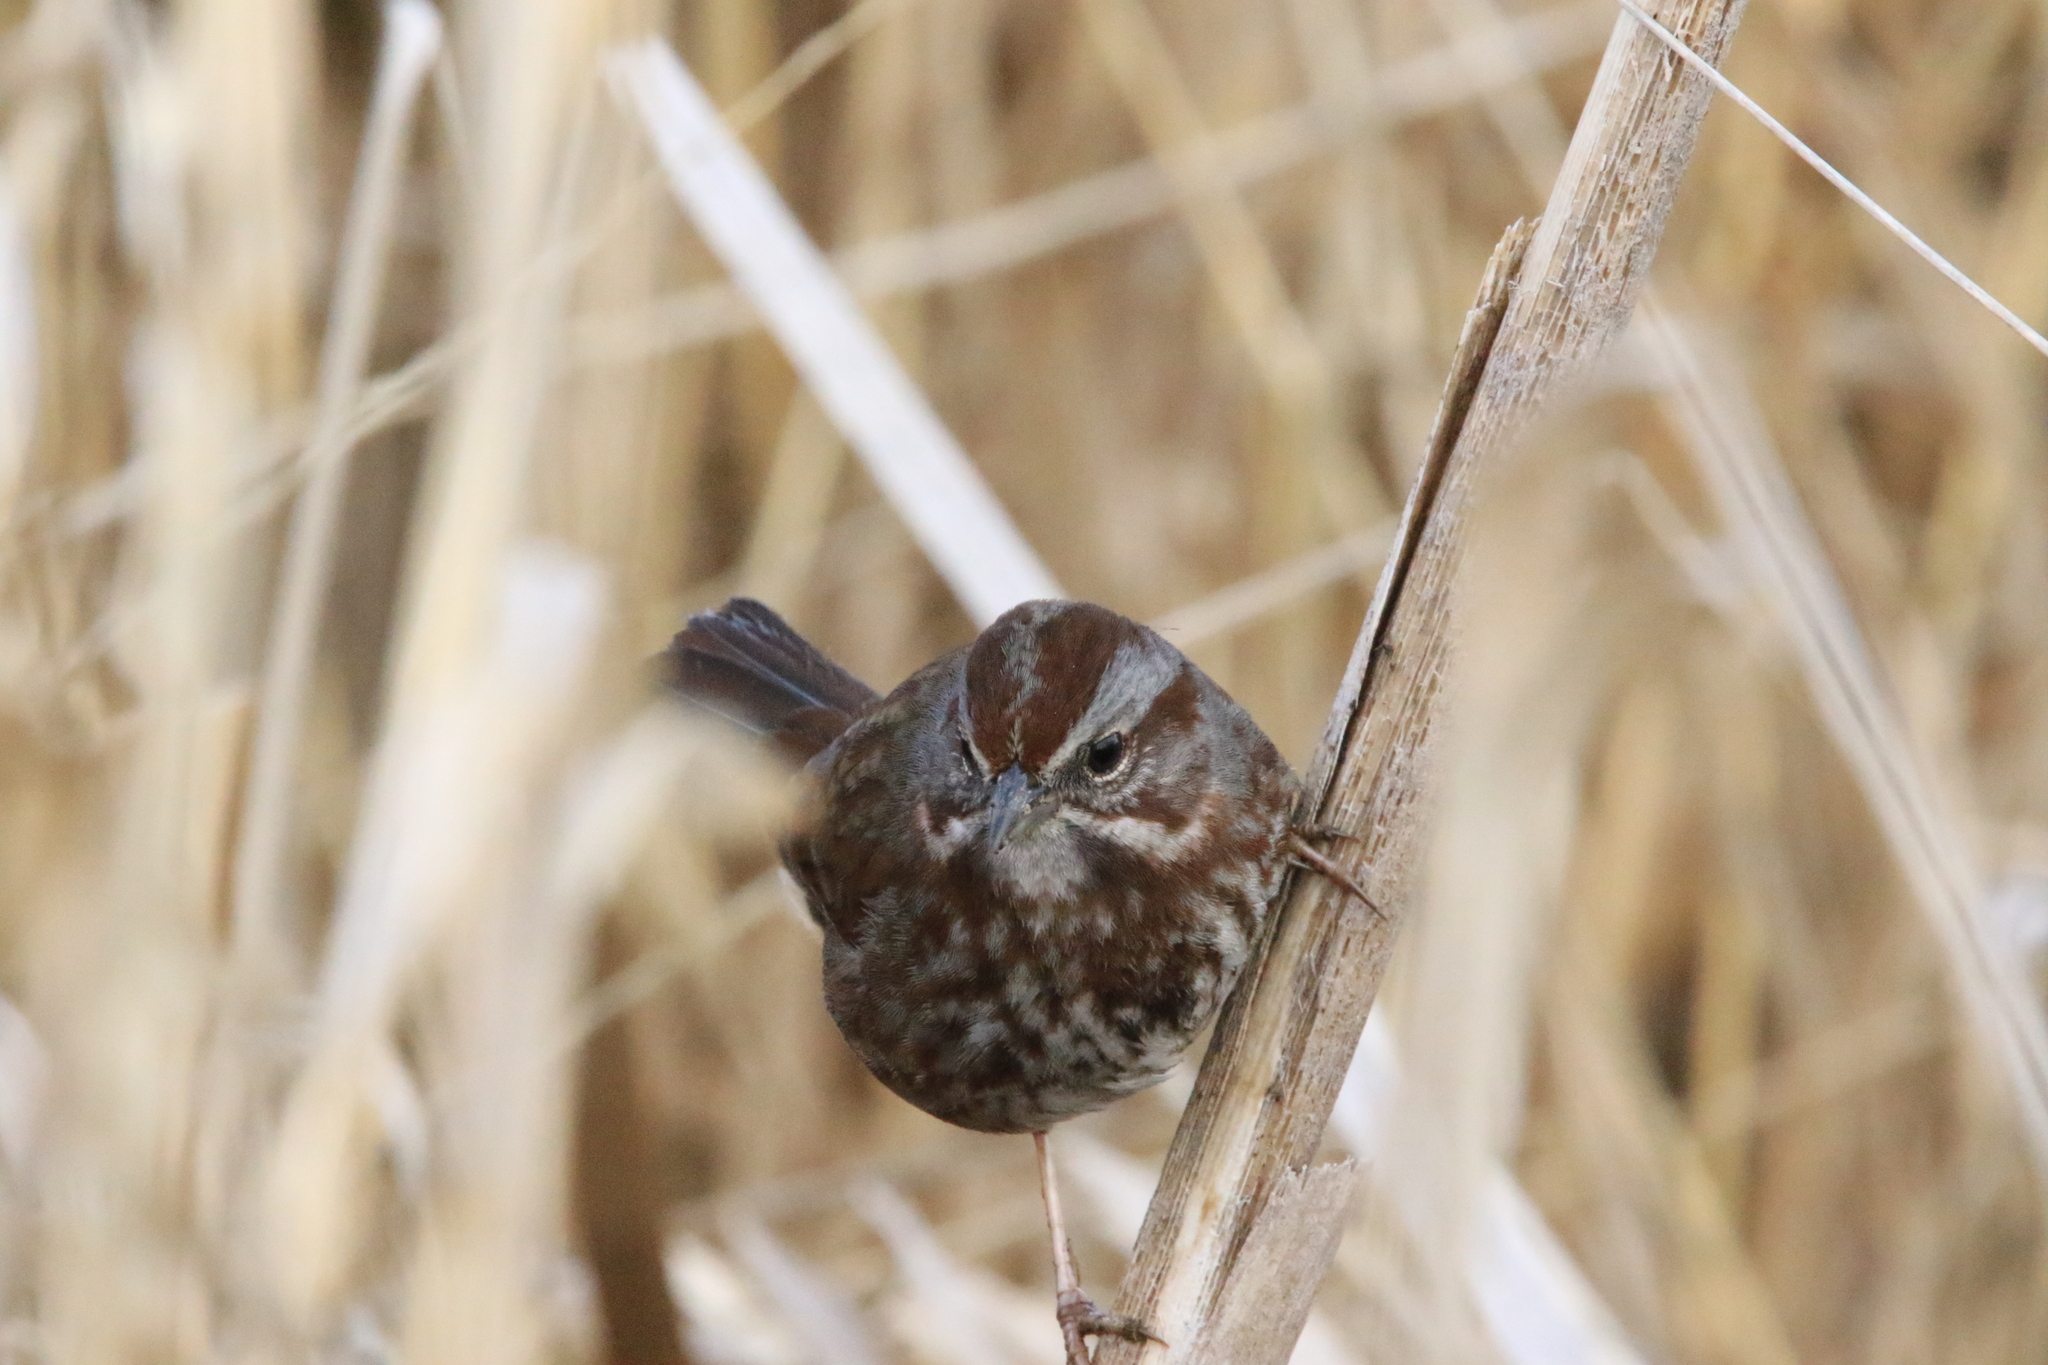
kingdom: Animalia
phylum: Chordata
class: Aves
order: Passeriformes
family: Passerellidae
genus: Melospiza
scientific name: Melospiza melodia
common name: Song sparrow
